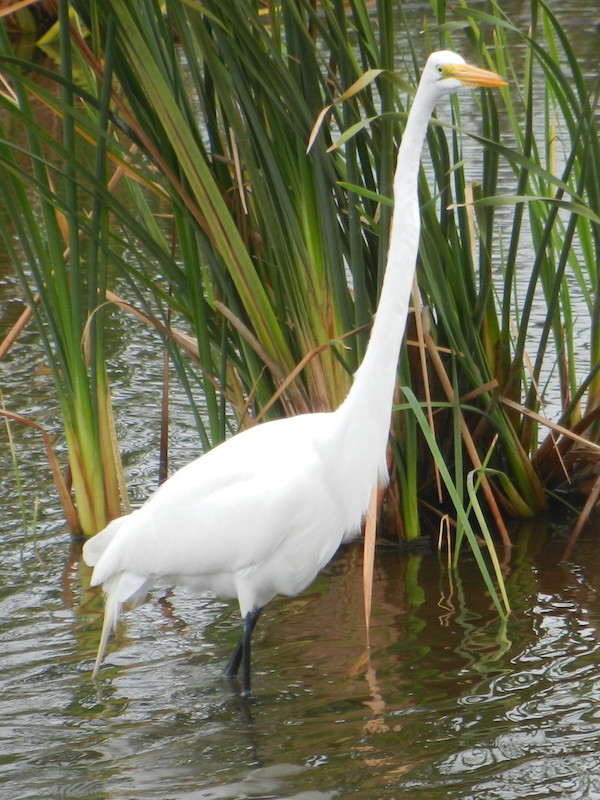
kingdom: Animalia
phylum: Chordata
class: Aves
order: Pelecaniformes
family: Ardeidae
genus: Ardea
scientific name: Ardea alba
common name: Great egret
